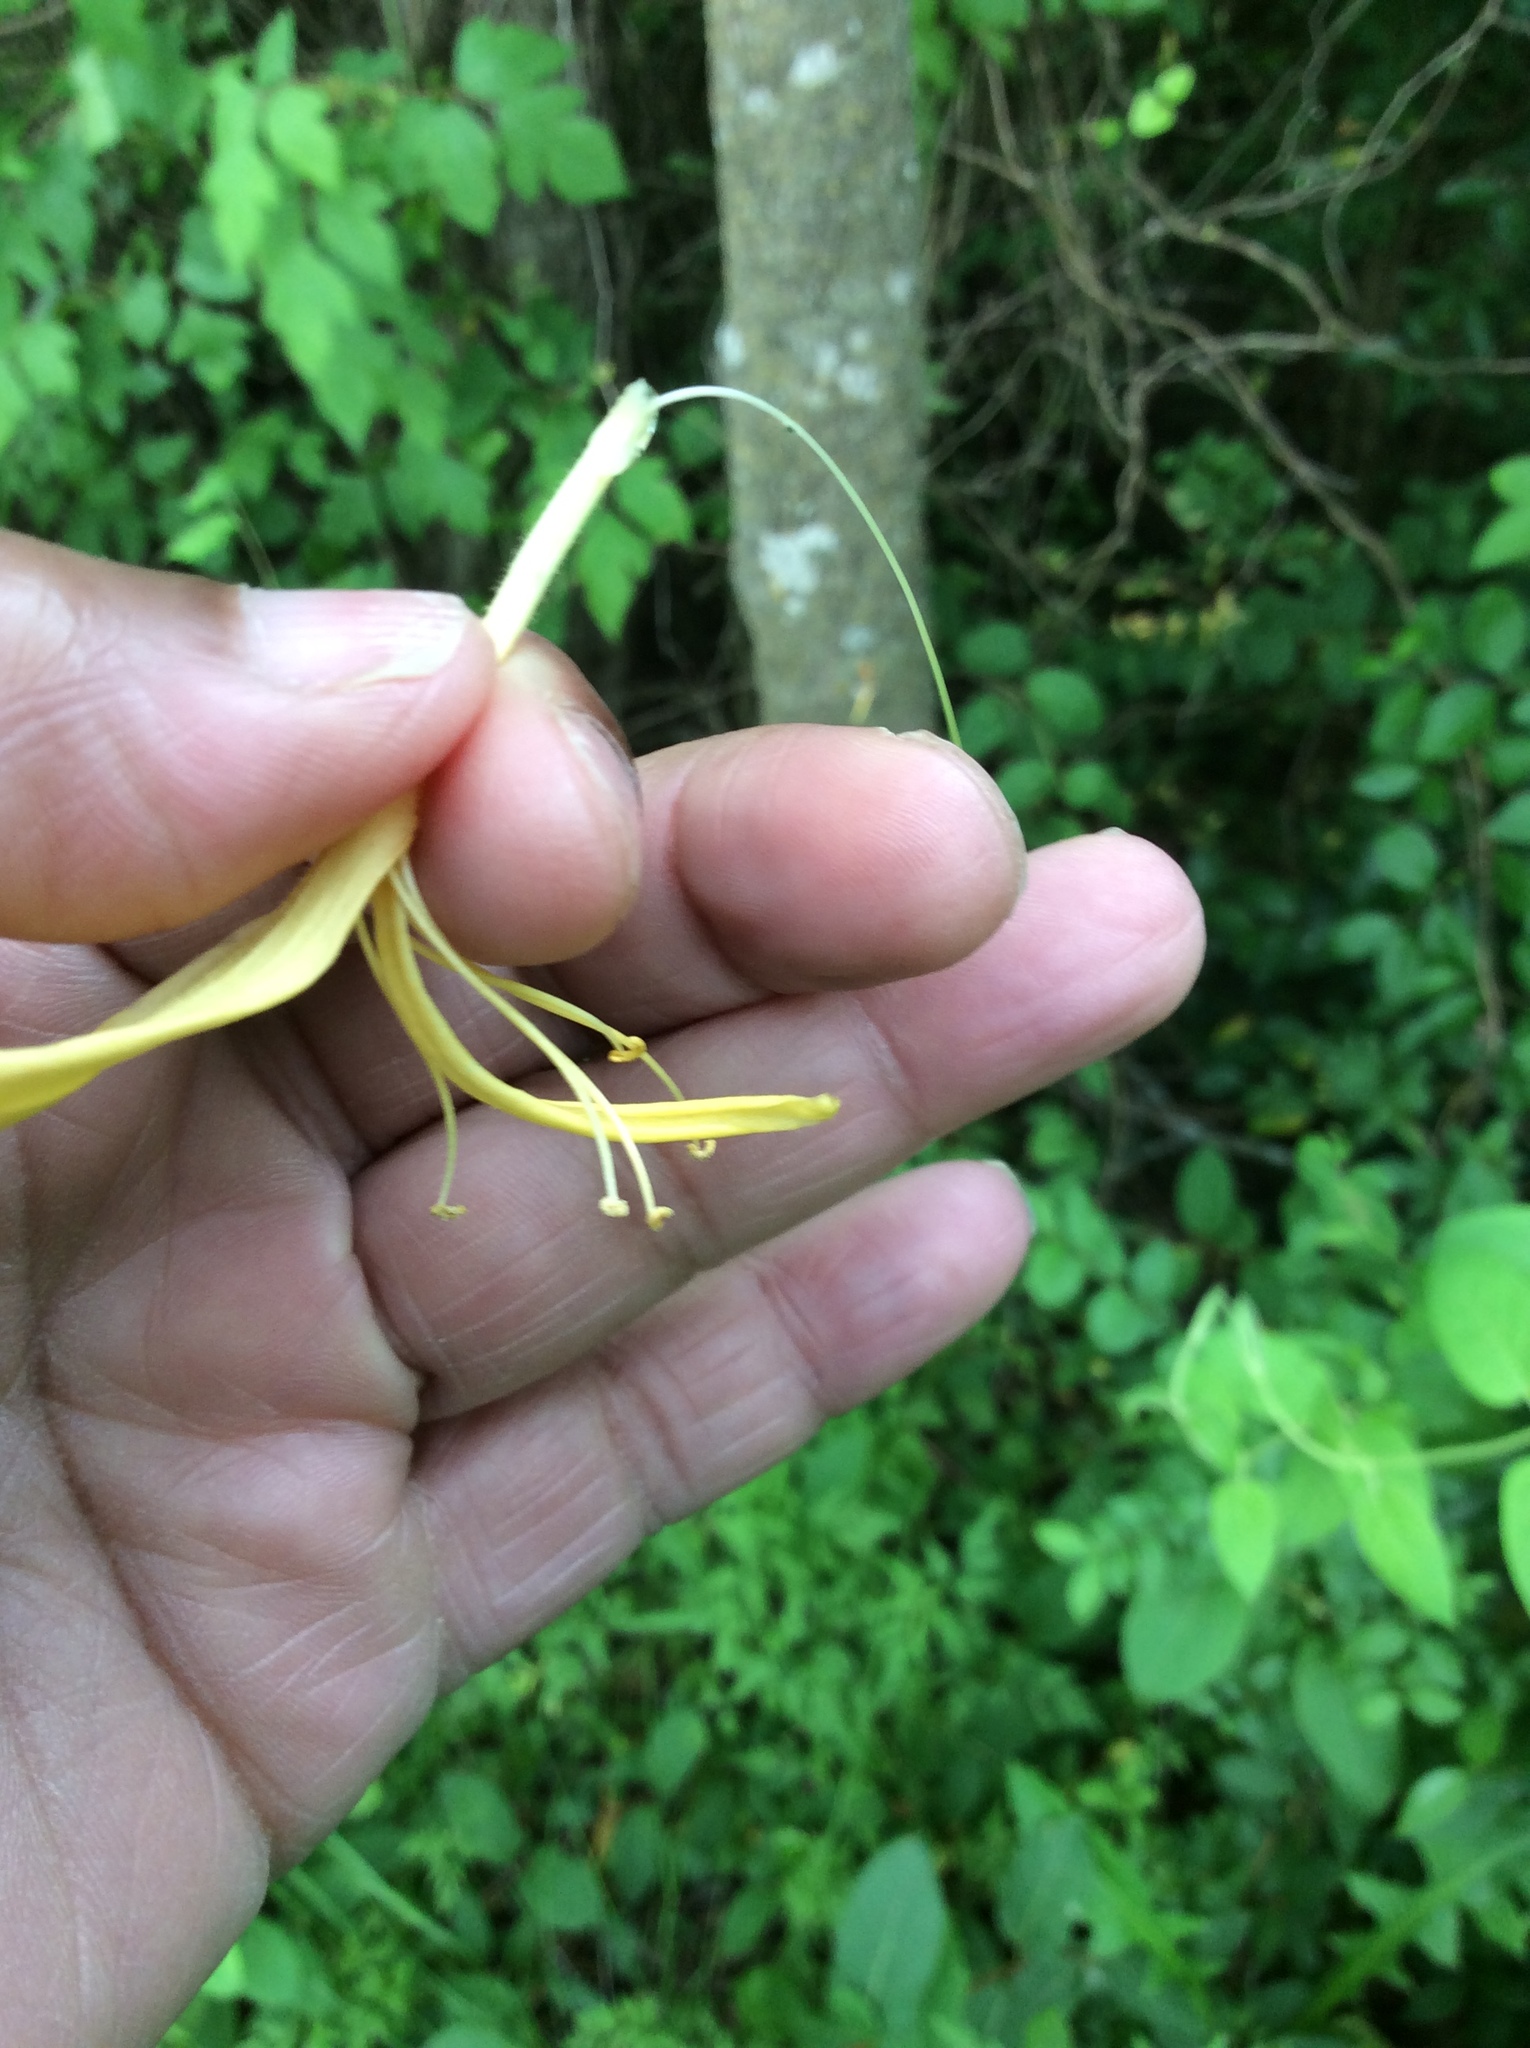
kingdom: Plantae
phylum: Tracheophyta
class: Magnoliopsida
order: Dipsacales
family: Caprifoliaceae
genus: Lonicera
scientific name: Lonicera japonica
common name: Japanese honeysuckle
